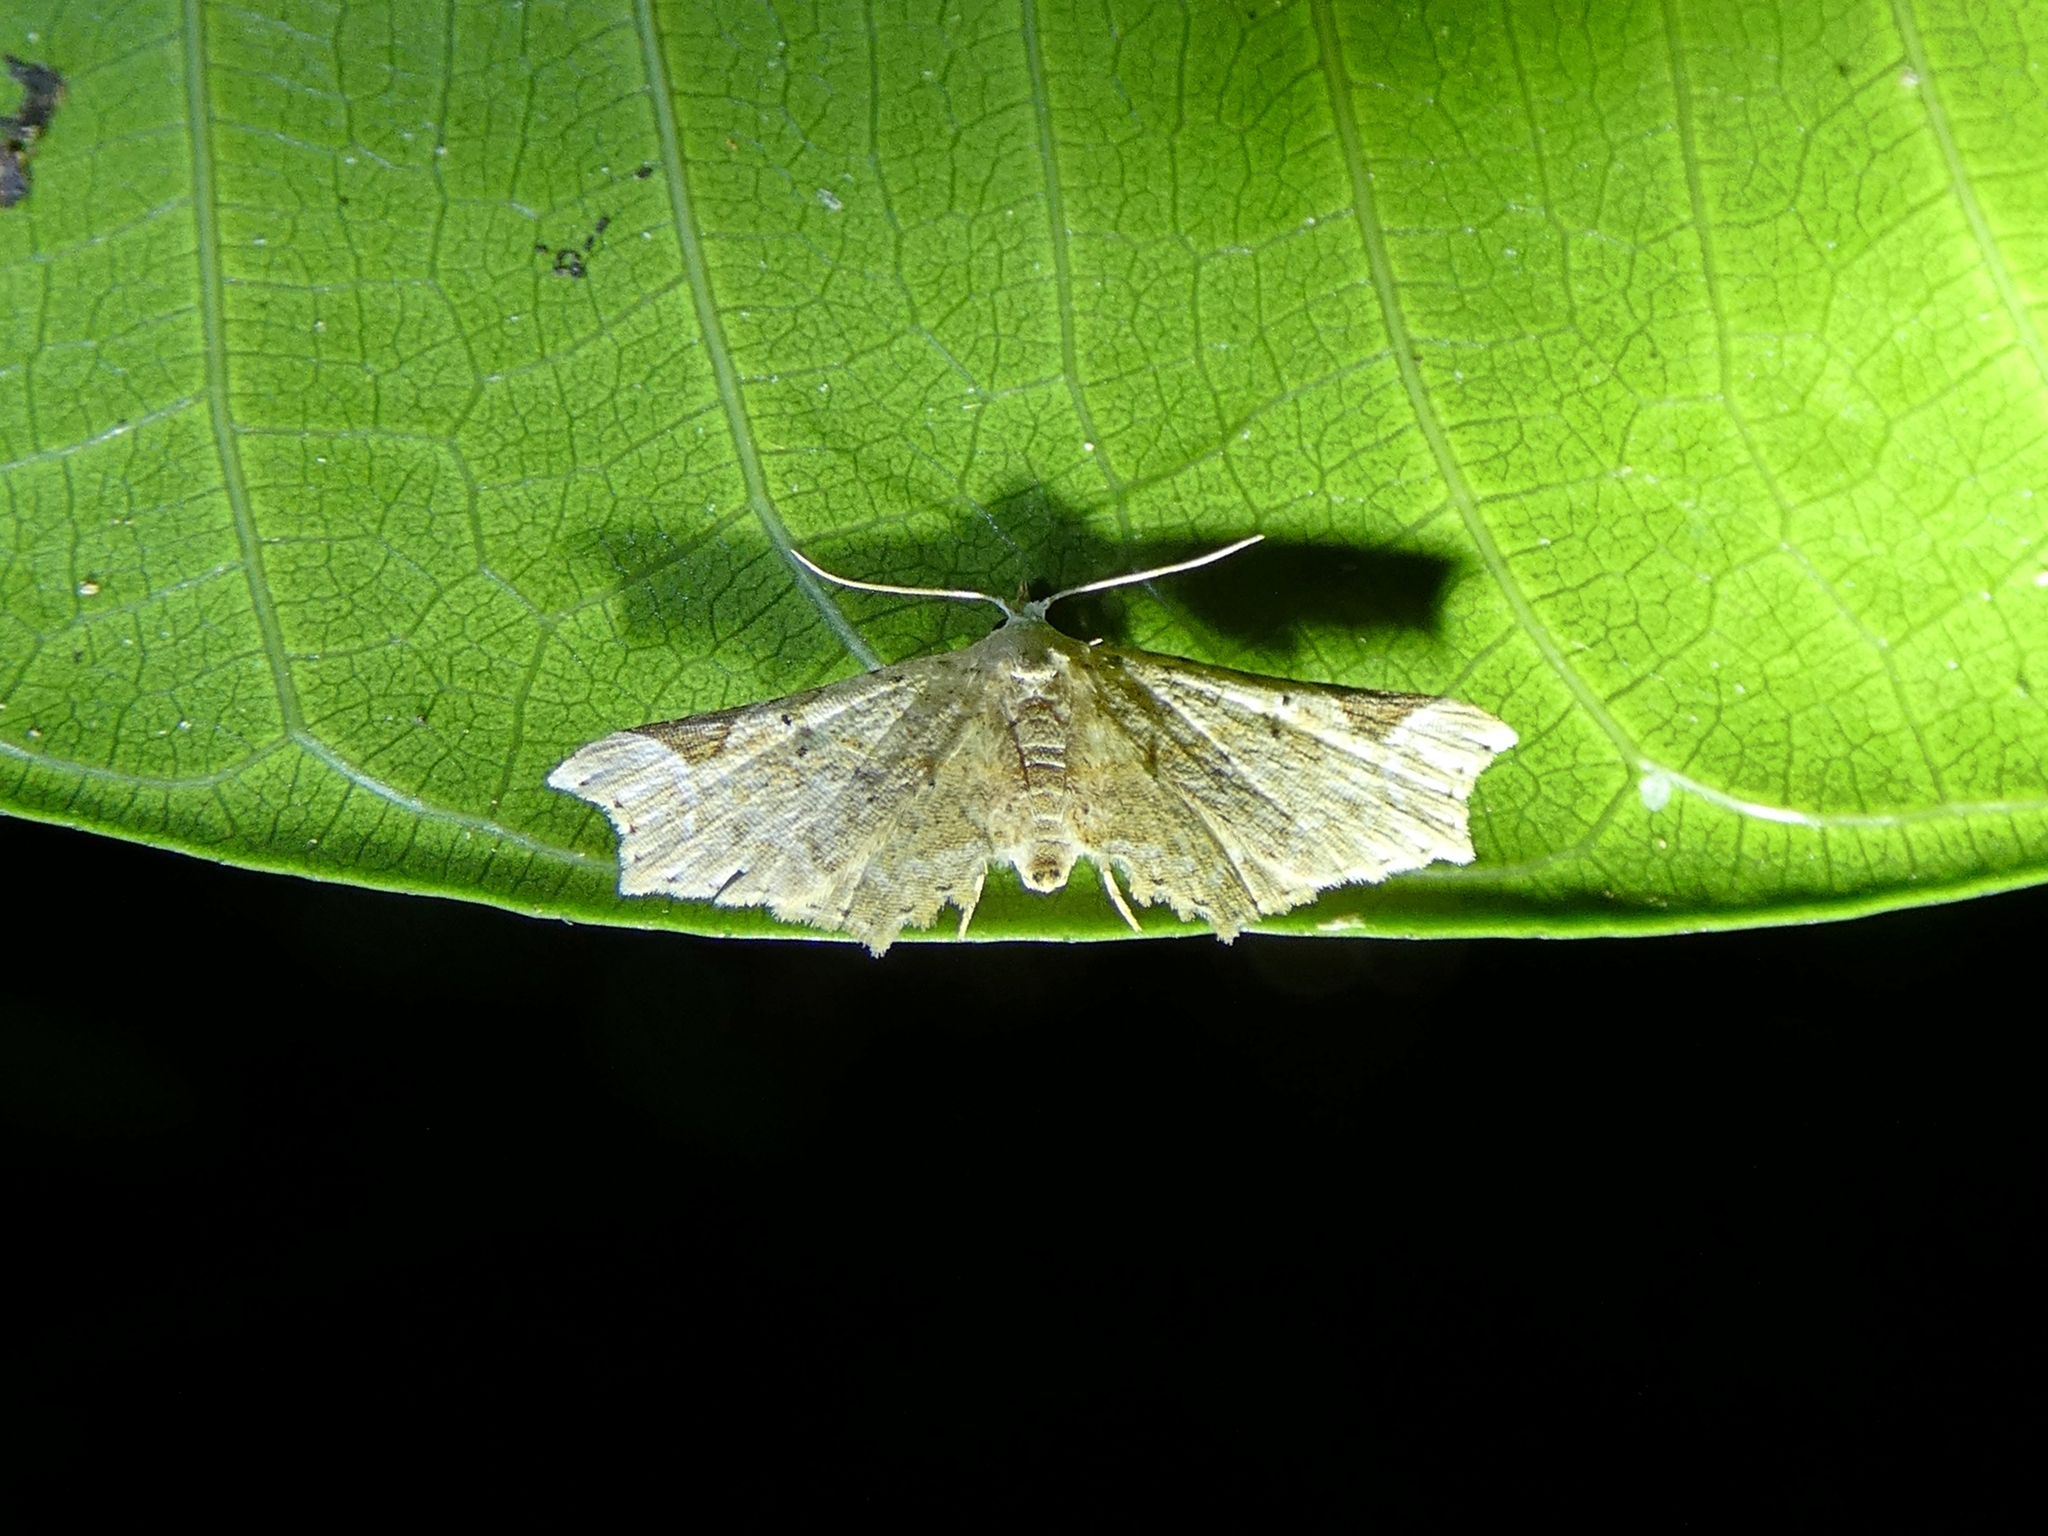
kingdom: Animalia
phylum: Arthropoda
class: Insecta
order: Lepidoptera
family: Erebidae
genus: Prolophota
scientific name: Prolophota pallida
